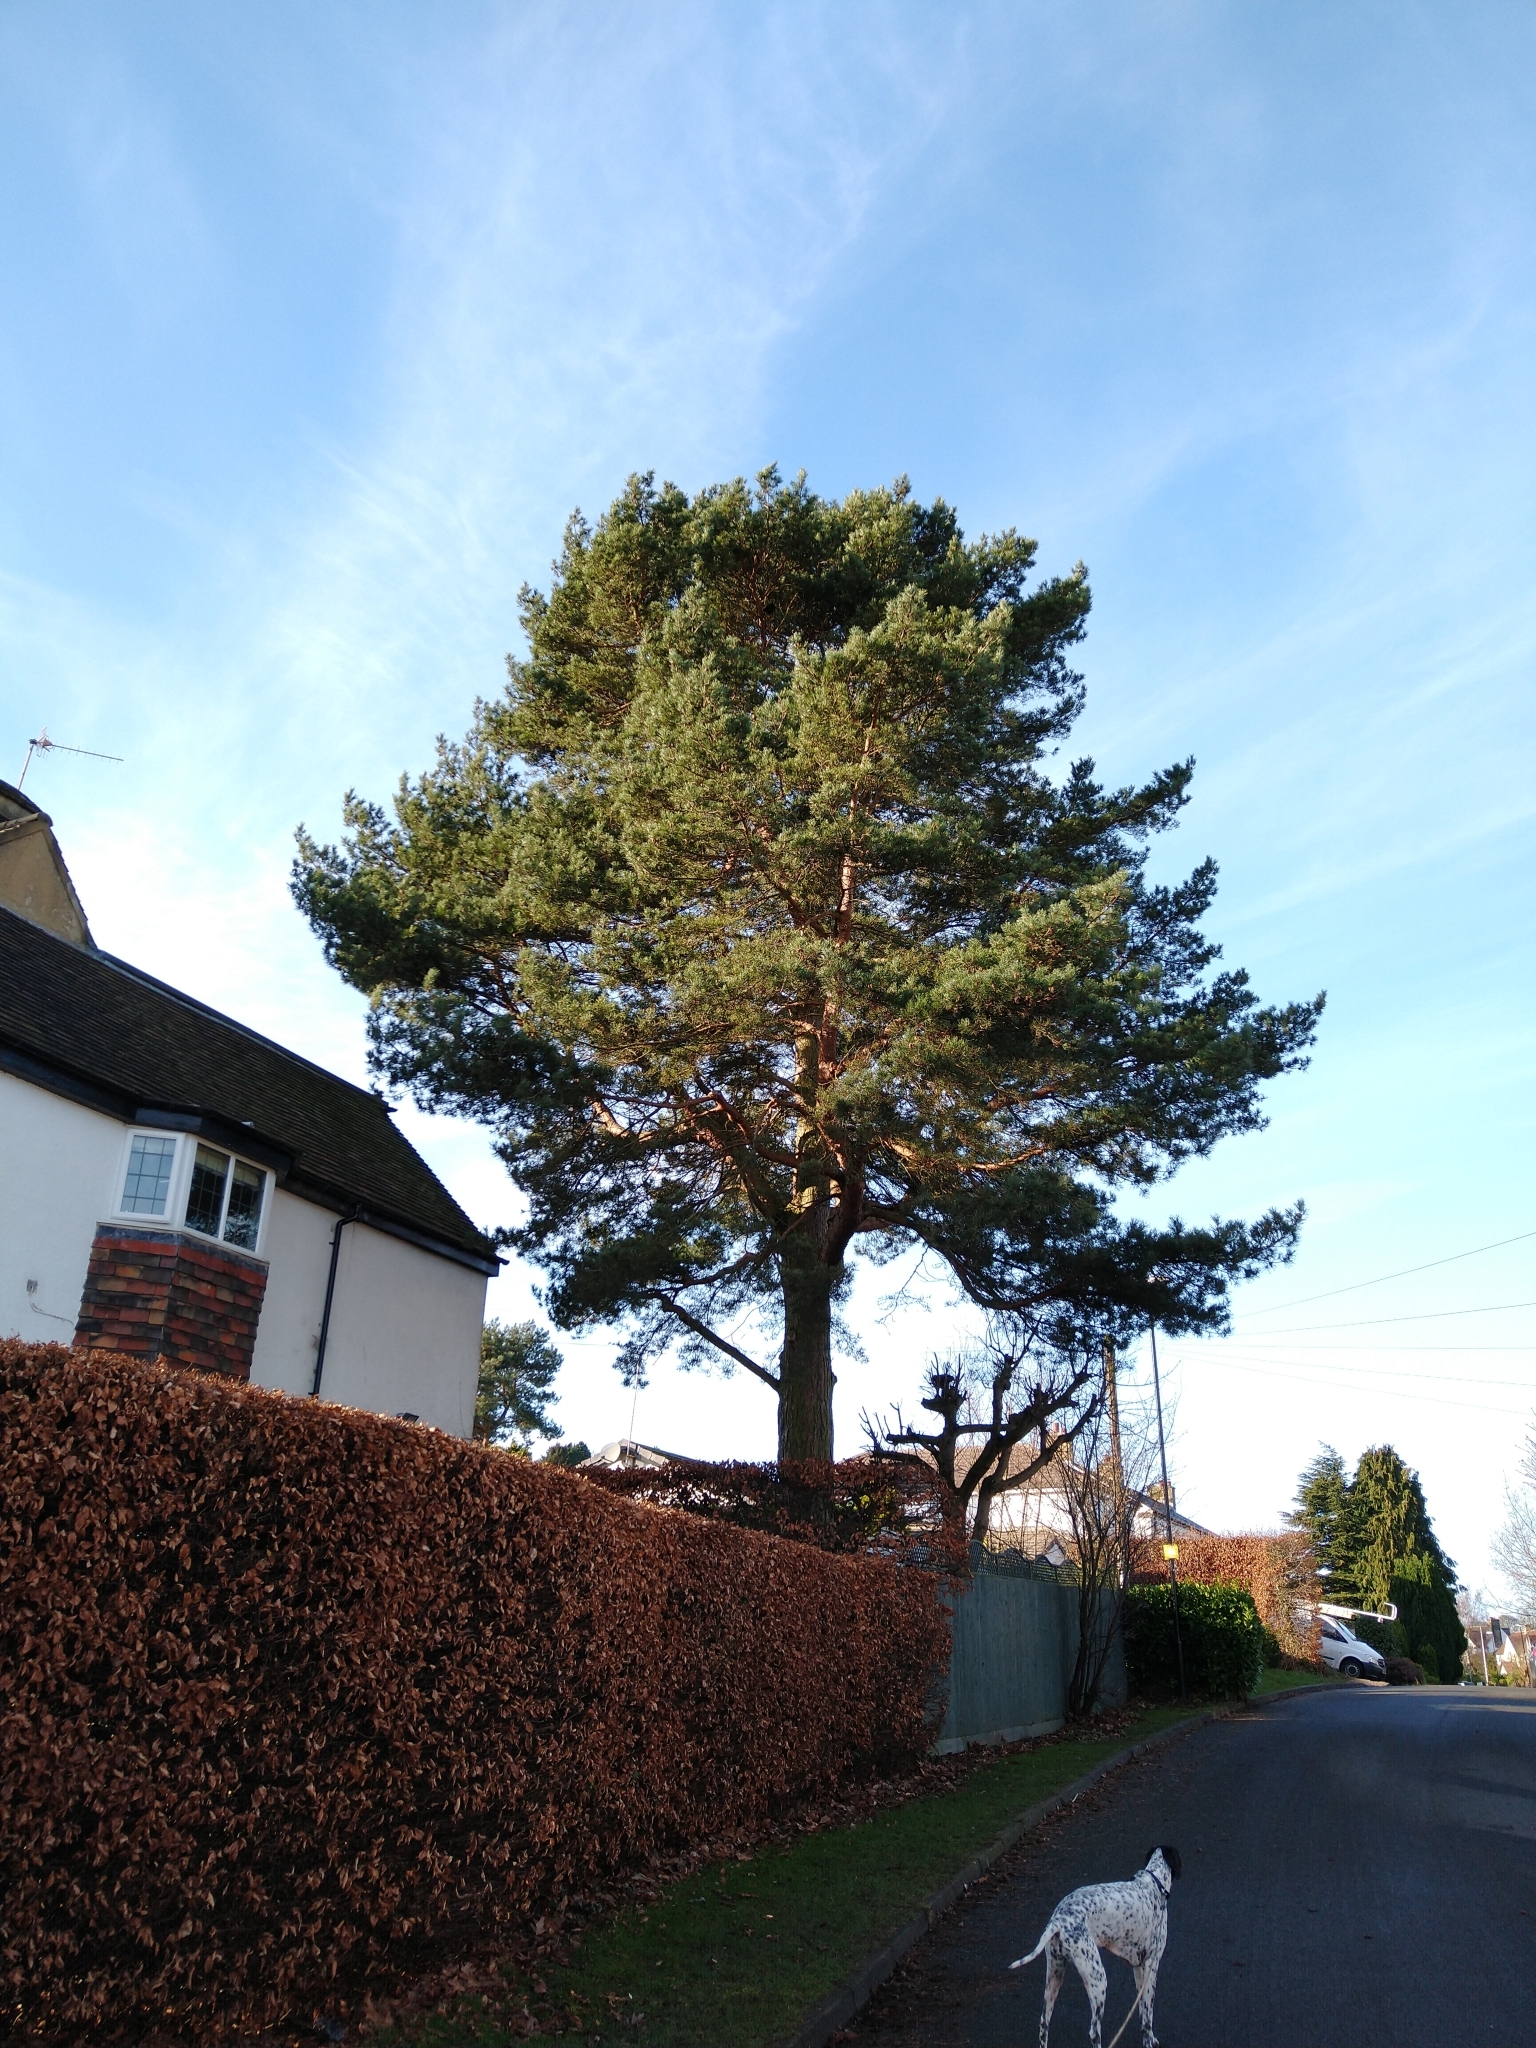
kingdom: Plantae
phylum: Tracheophyta
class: Pinopsida
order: Pinales
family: Pinaceae
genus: Pinus
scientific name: Pinus sylvestris
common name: Scots pine
